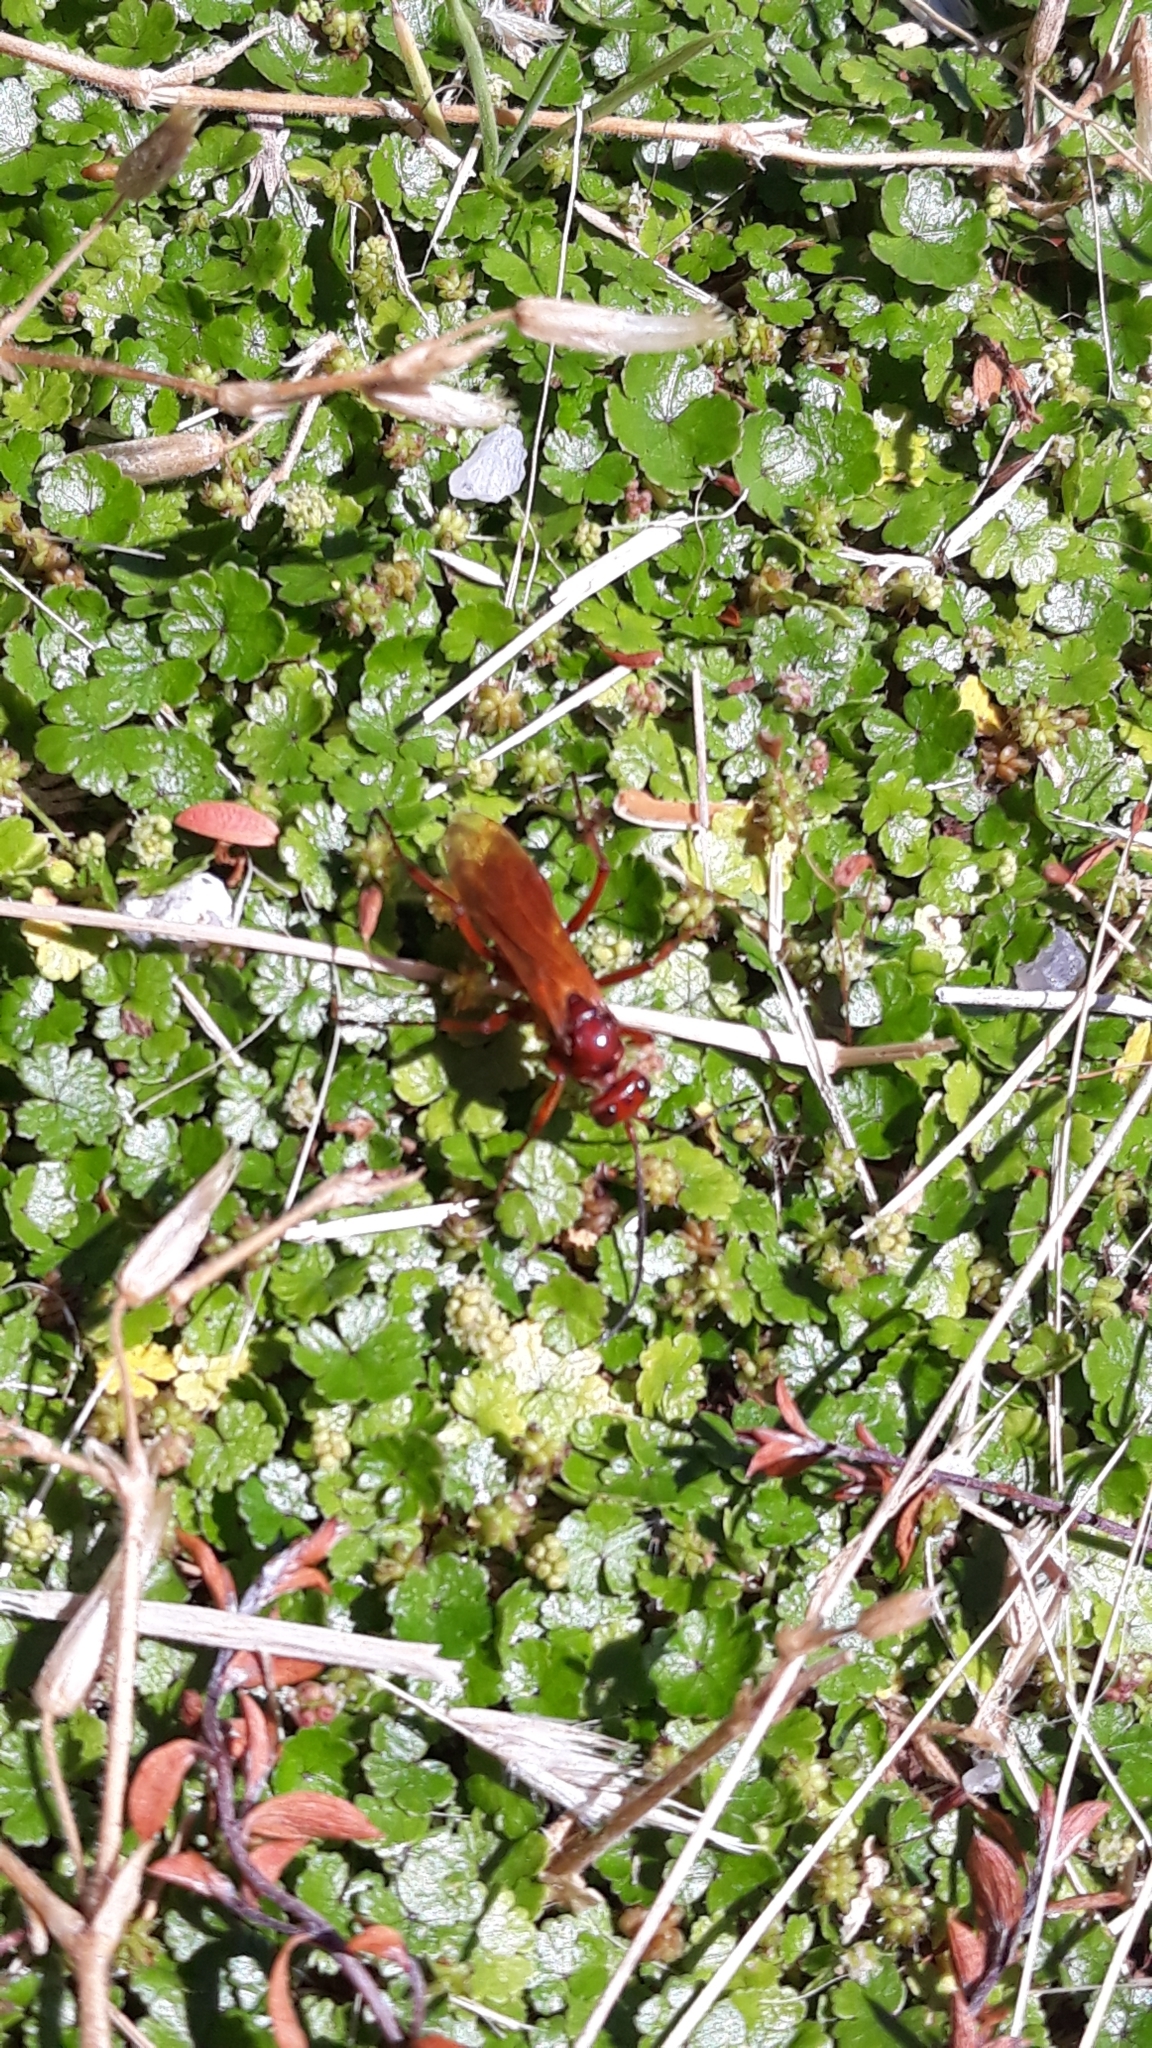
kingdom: Animalia
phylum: Arthropoda
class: Insecta
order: Hymenoptera
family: Pompilidae
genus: Sphictostethus
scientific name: Sphictostethus nitidus
